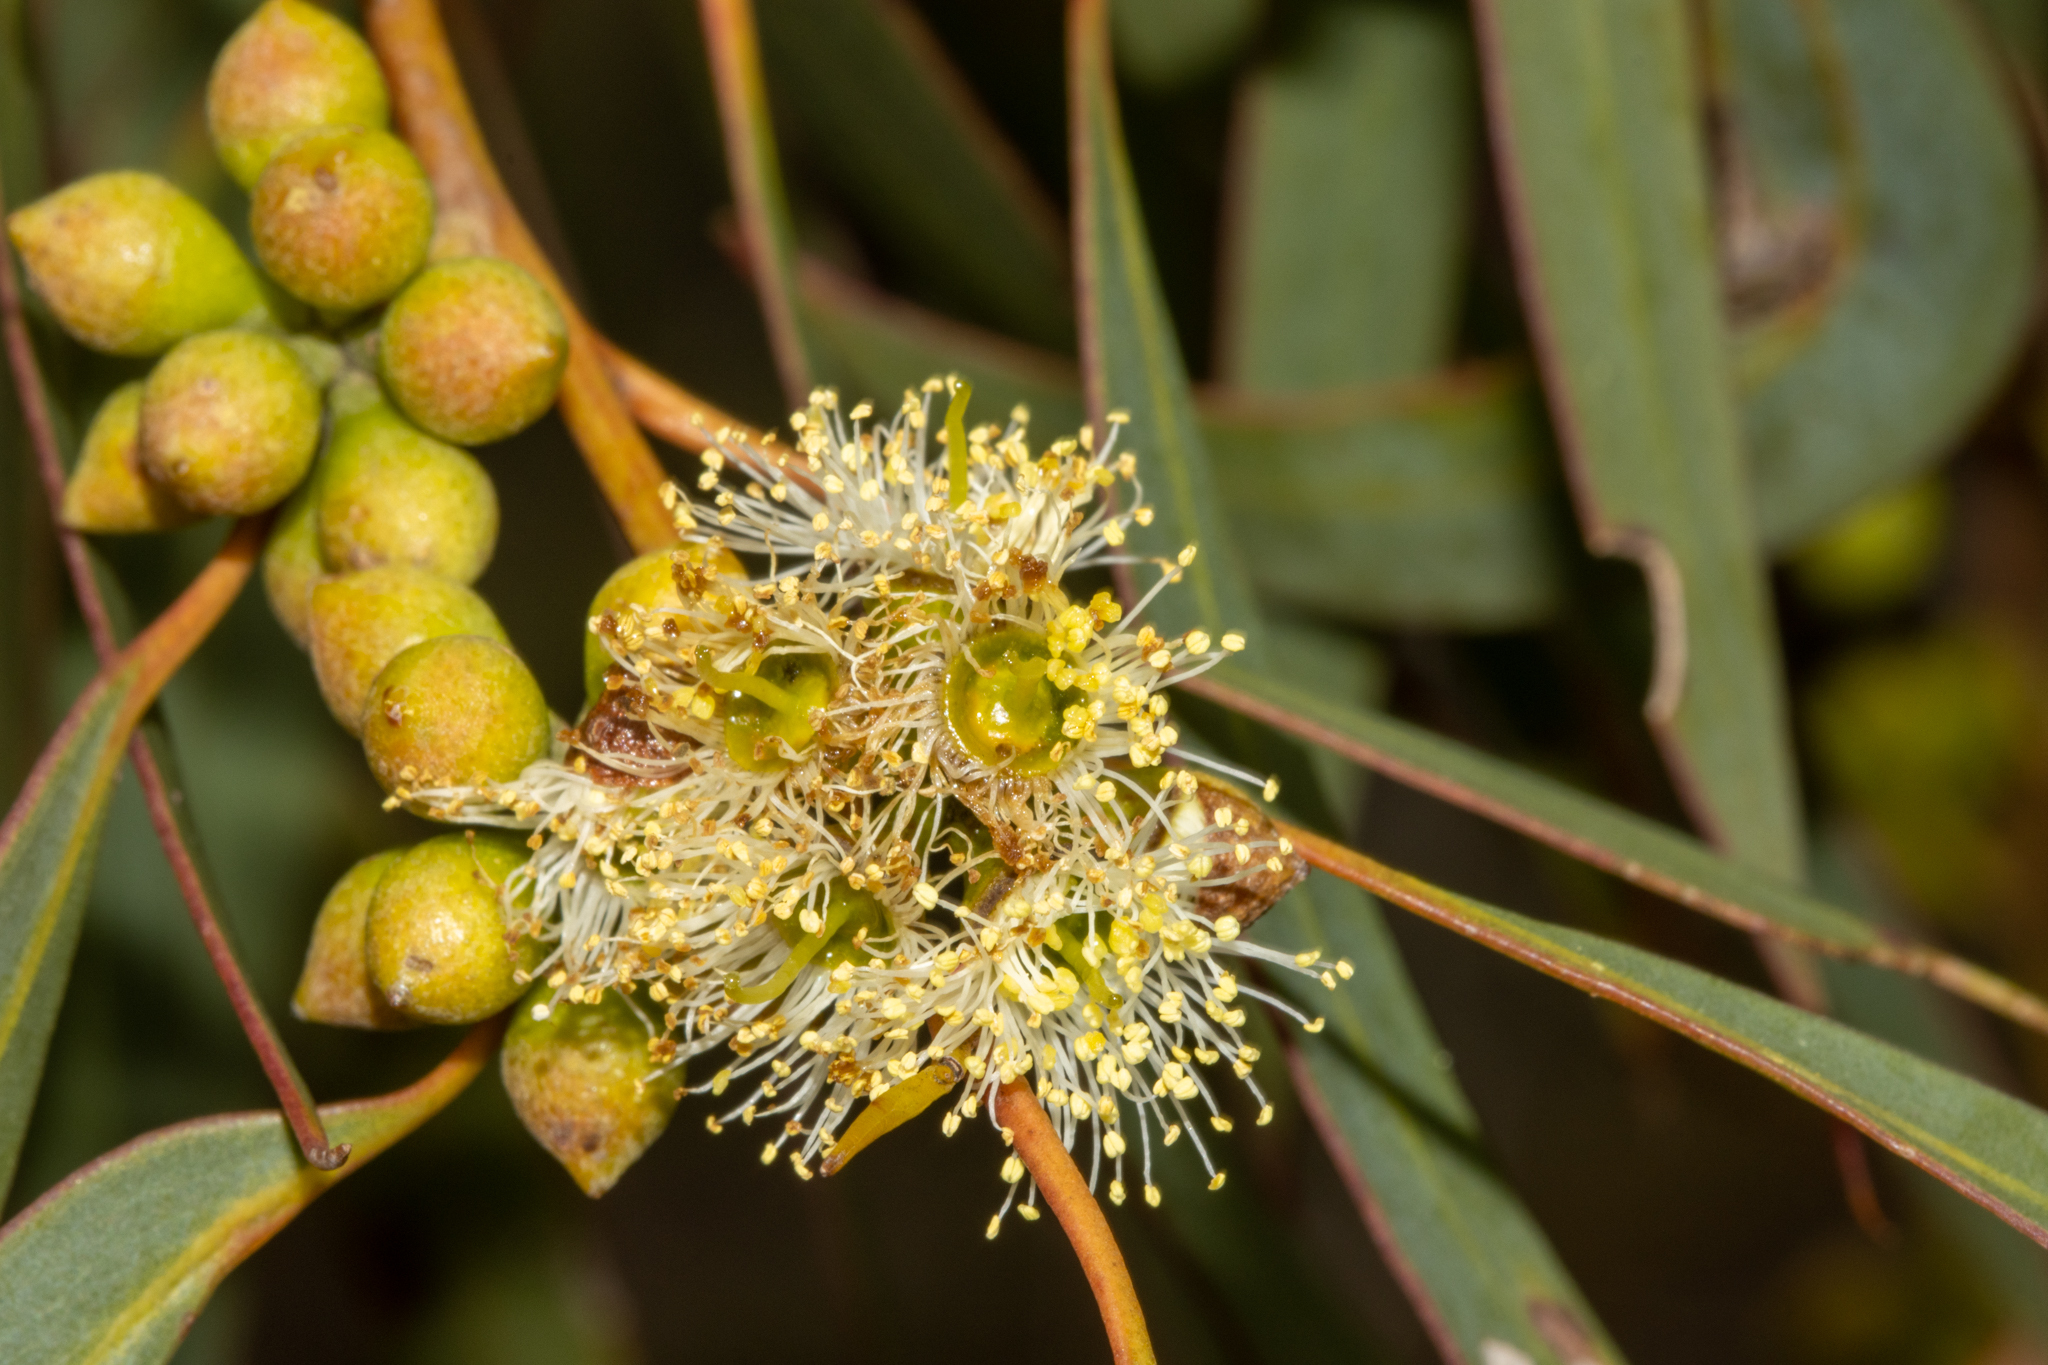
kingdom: Plantae
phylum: Tracheophyta
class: Magnoliopsida
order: Myrtales
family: Myrtaceae
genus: Eucalyptus
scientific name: Eucalyptus diversifolia
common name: Coastal white mallee
